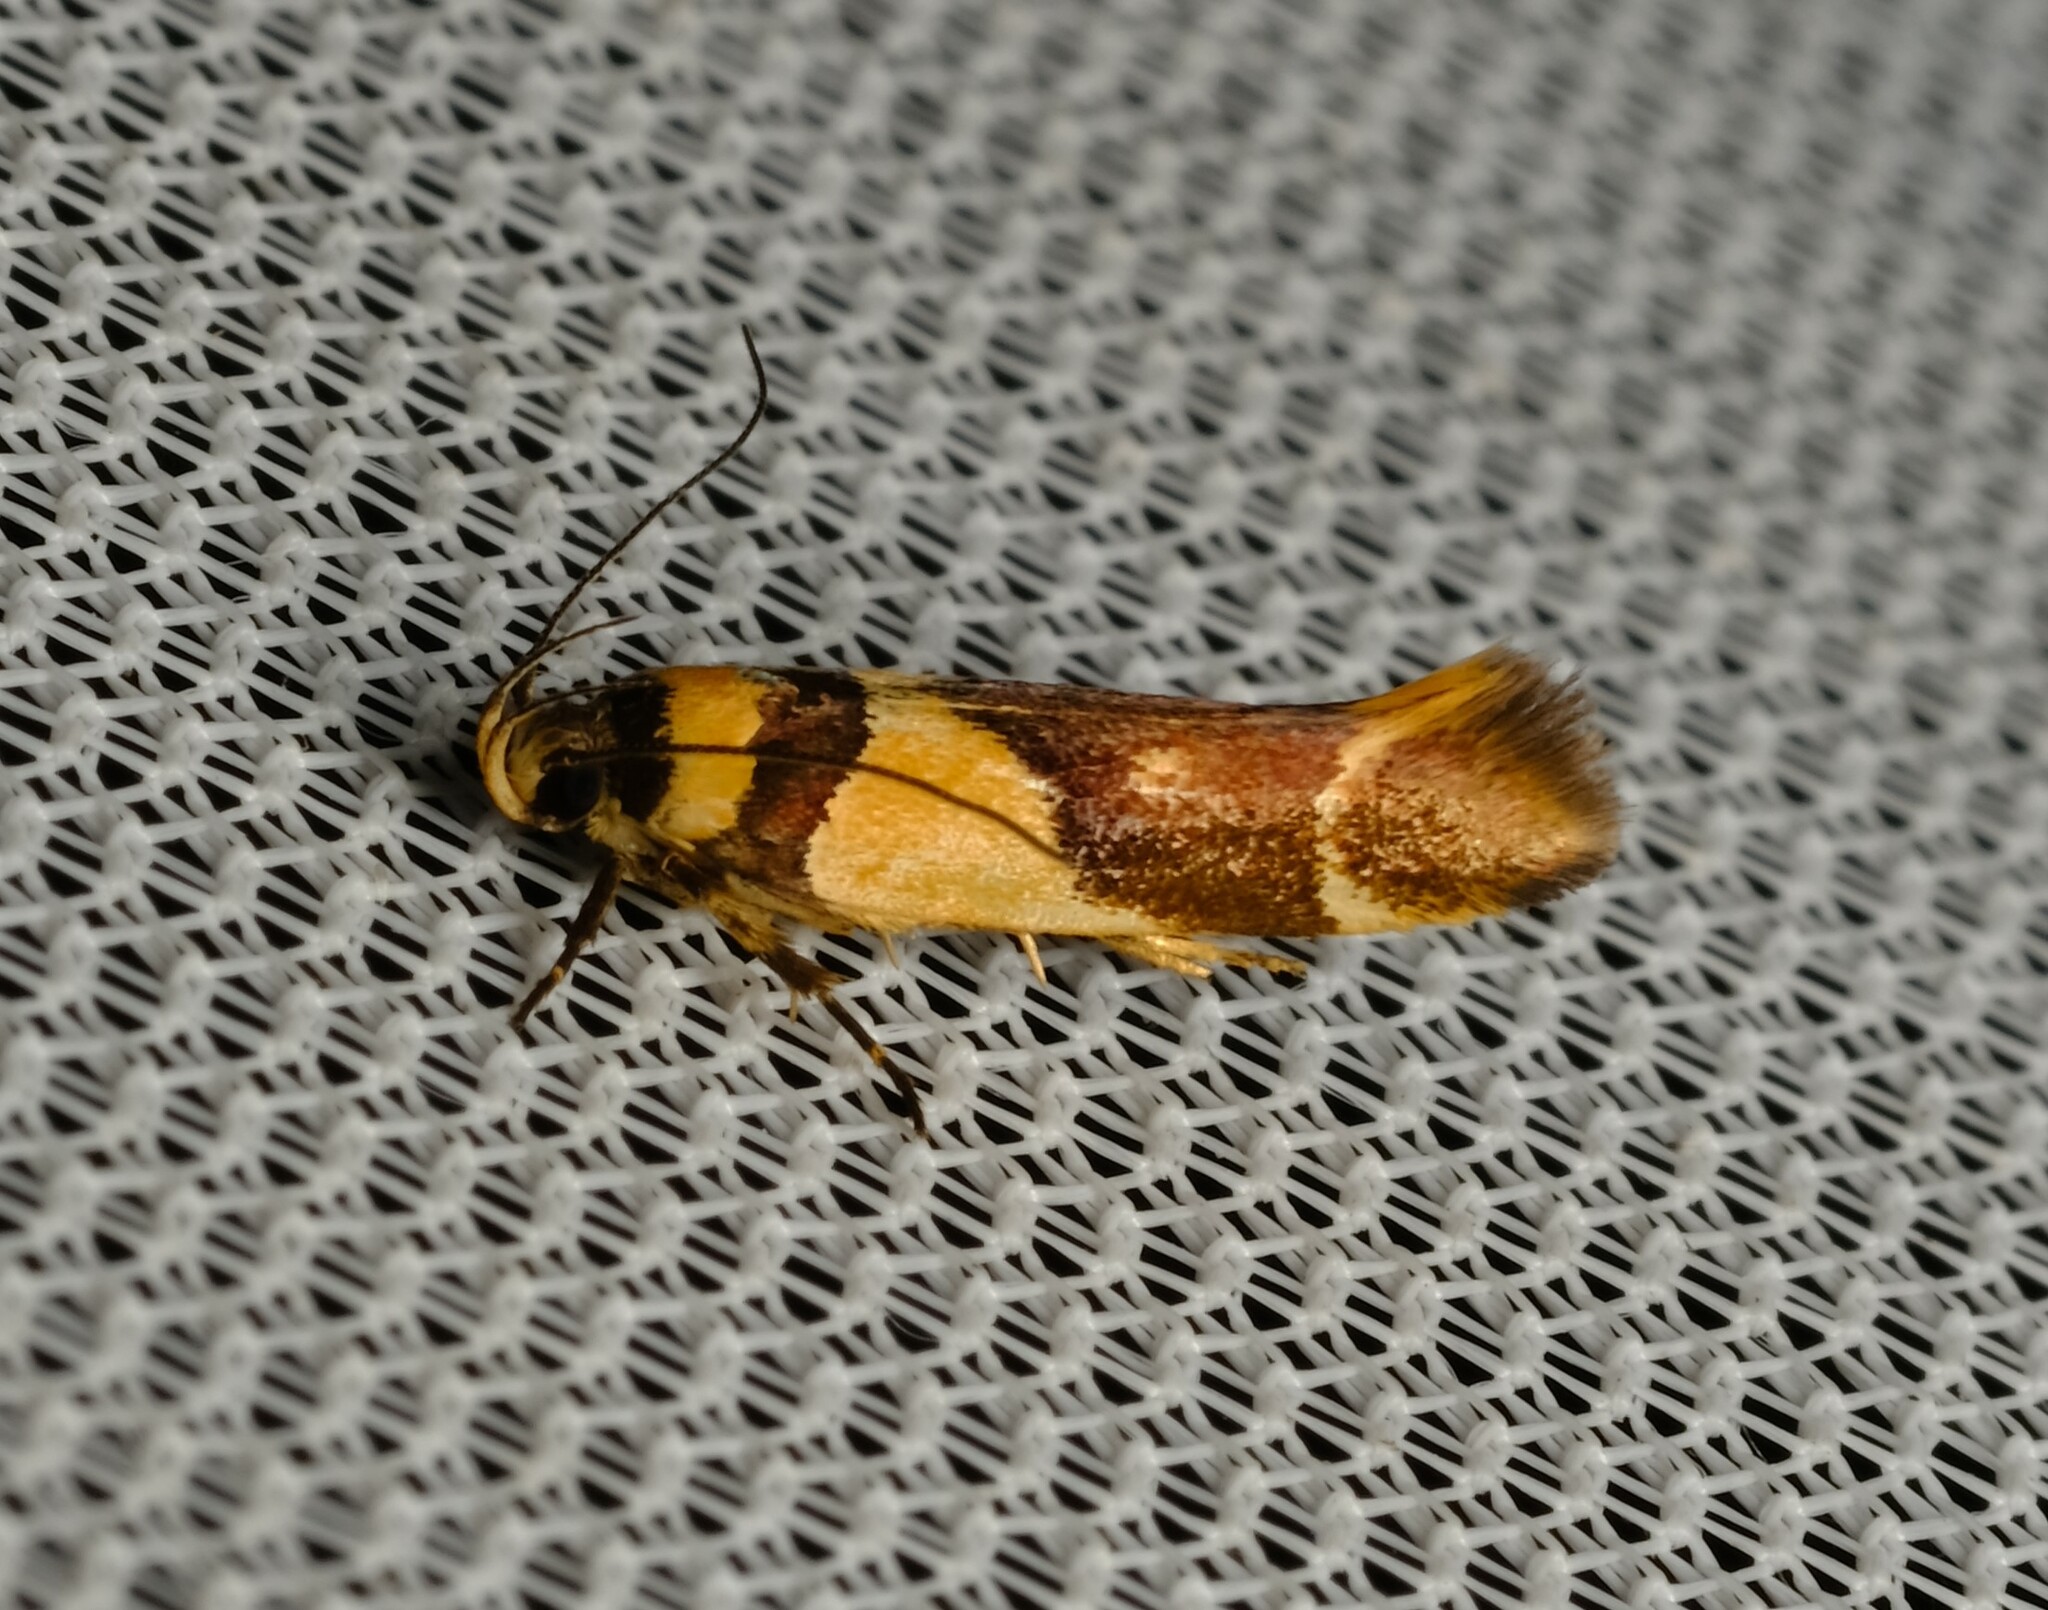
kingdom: Animalia
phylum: Arthropoda
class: Insecta
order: Lepidoptera
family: Cosmopterigidae
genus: Macrobathra
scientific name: Macrobathra chrysotoxa
